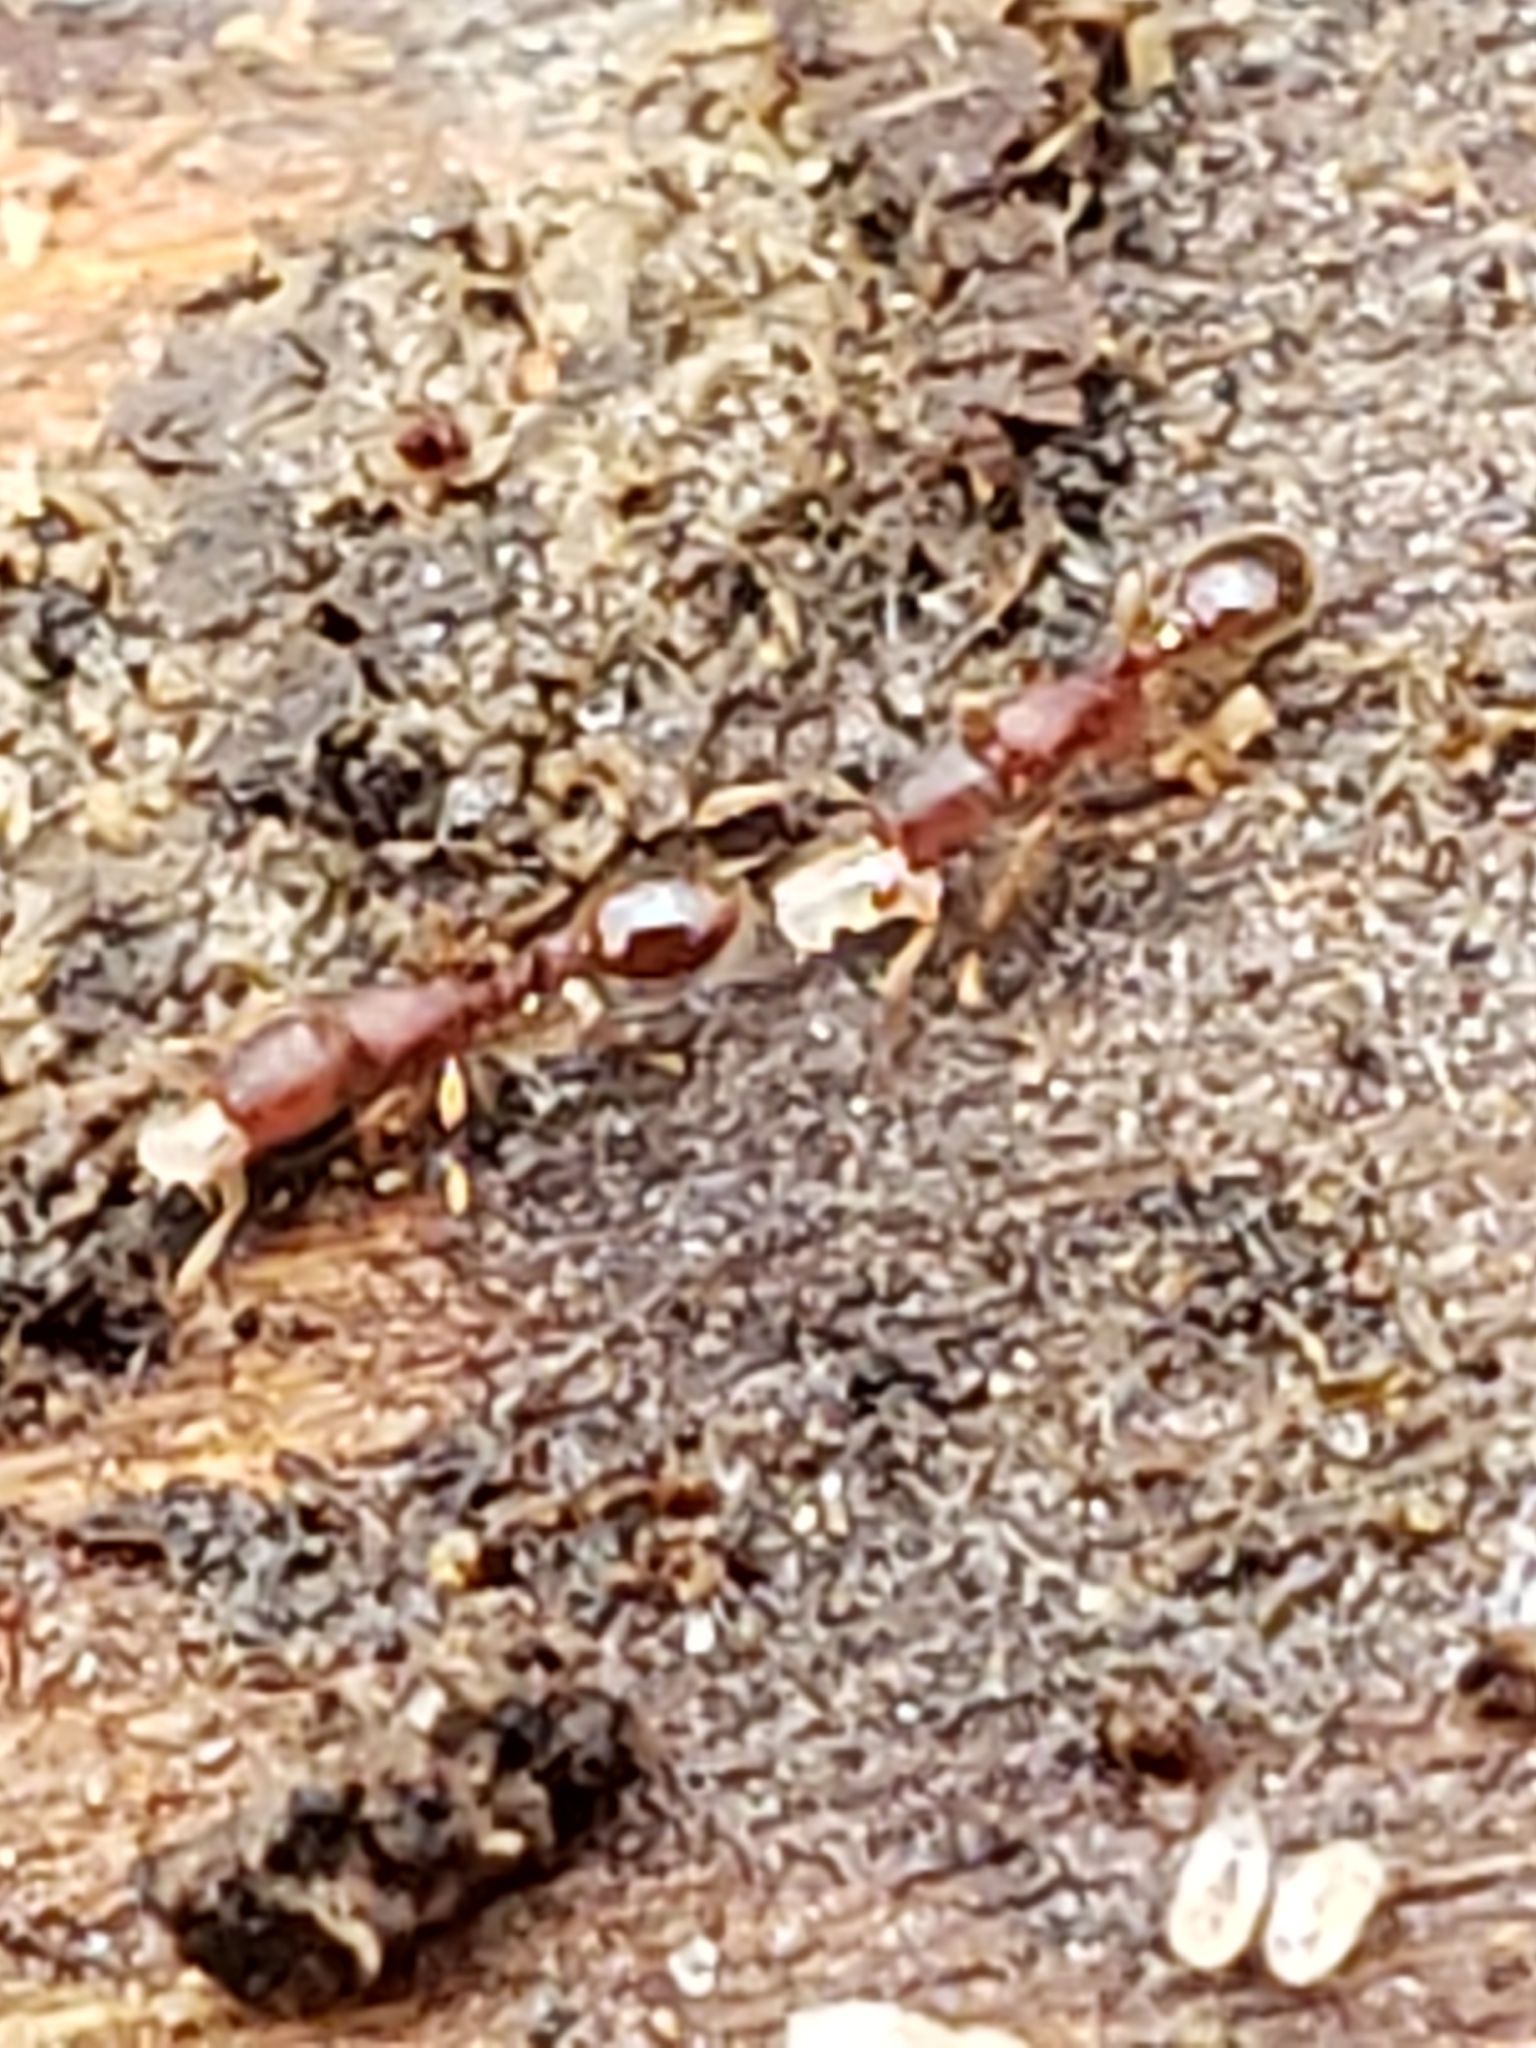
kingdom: Animalia
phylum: Arthropoda
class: Insecta
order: Hymenoptera
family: Formicidae
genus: Vollenhovia
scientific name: Vollenhovia emeryi
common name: Ant
